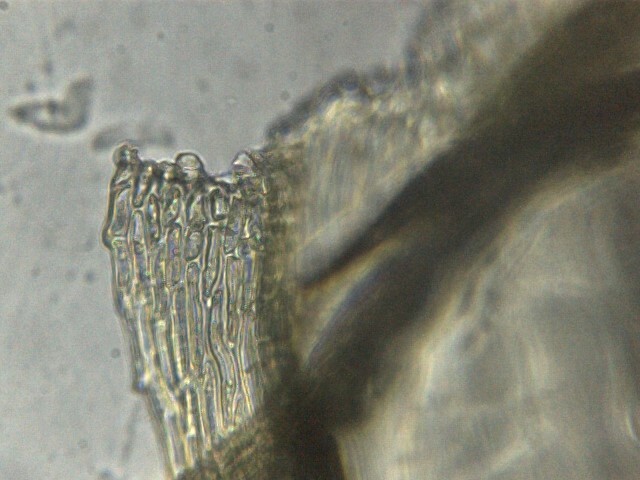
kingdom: Plantae
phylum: Bryophyta
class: Bryopsida
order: Hypnales
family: Brachytheciaceae
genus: Homalothecium
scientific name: Homalothecium sericeum
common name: Silky wall feather-moss
